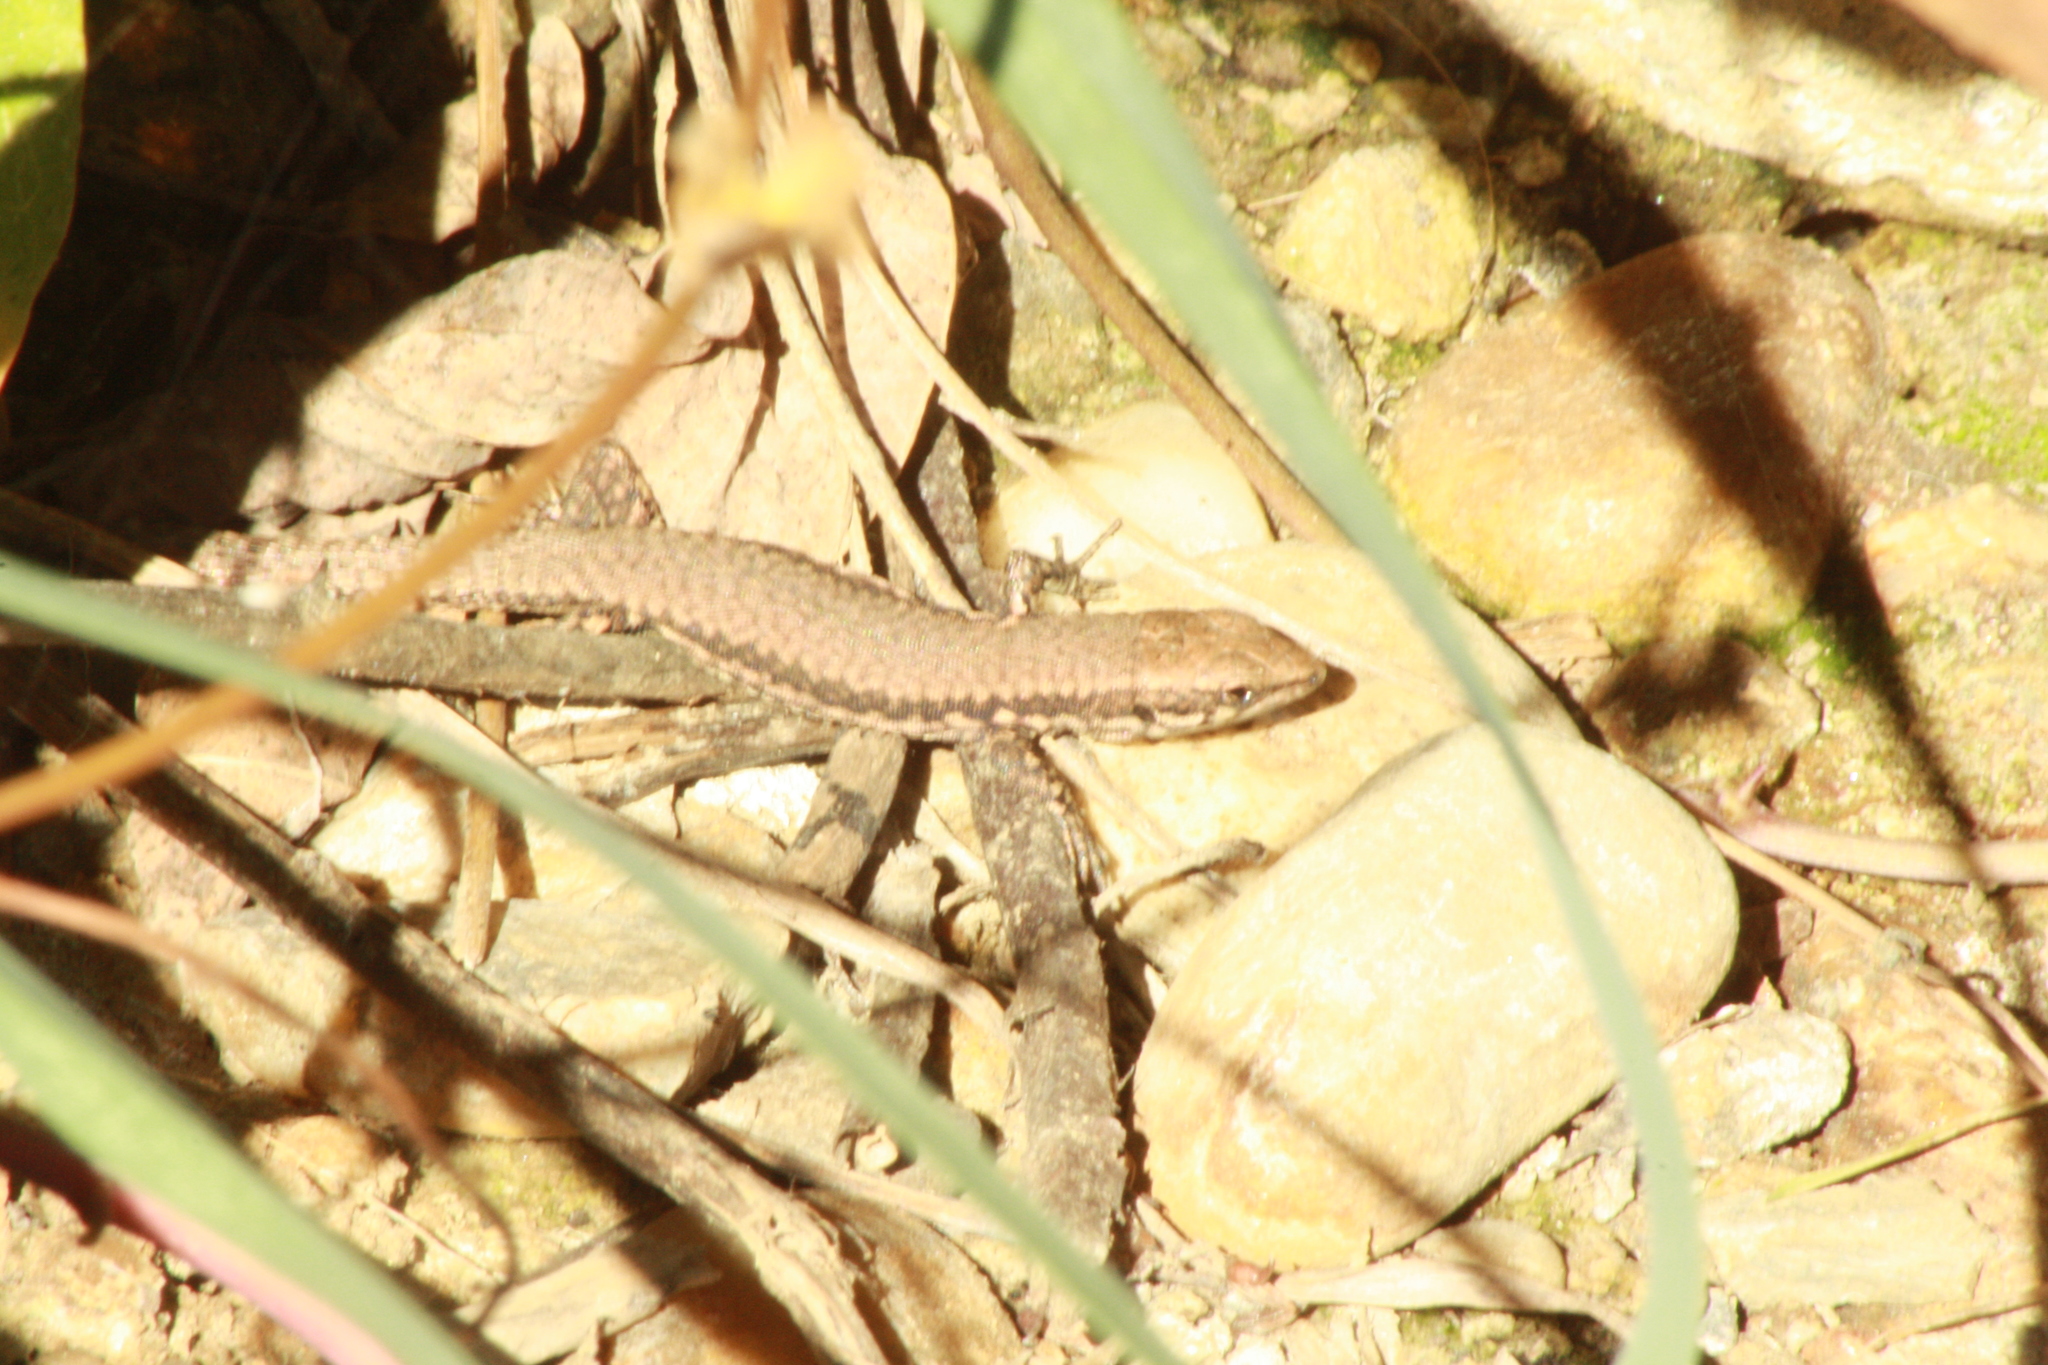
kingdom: Animalia
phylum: Chordata
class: Squamata
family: Lacertidae
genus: Podarcis
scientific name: Podarcis muralis
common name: Common wall lizard
